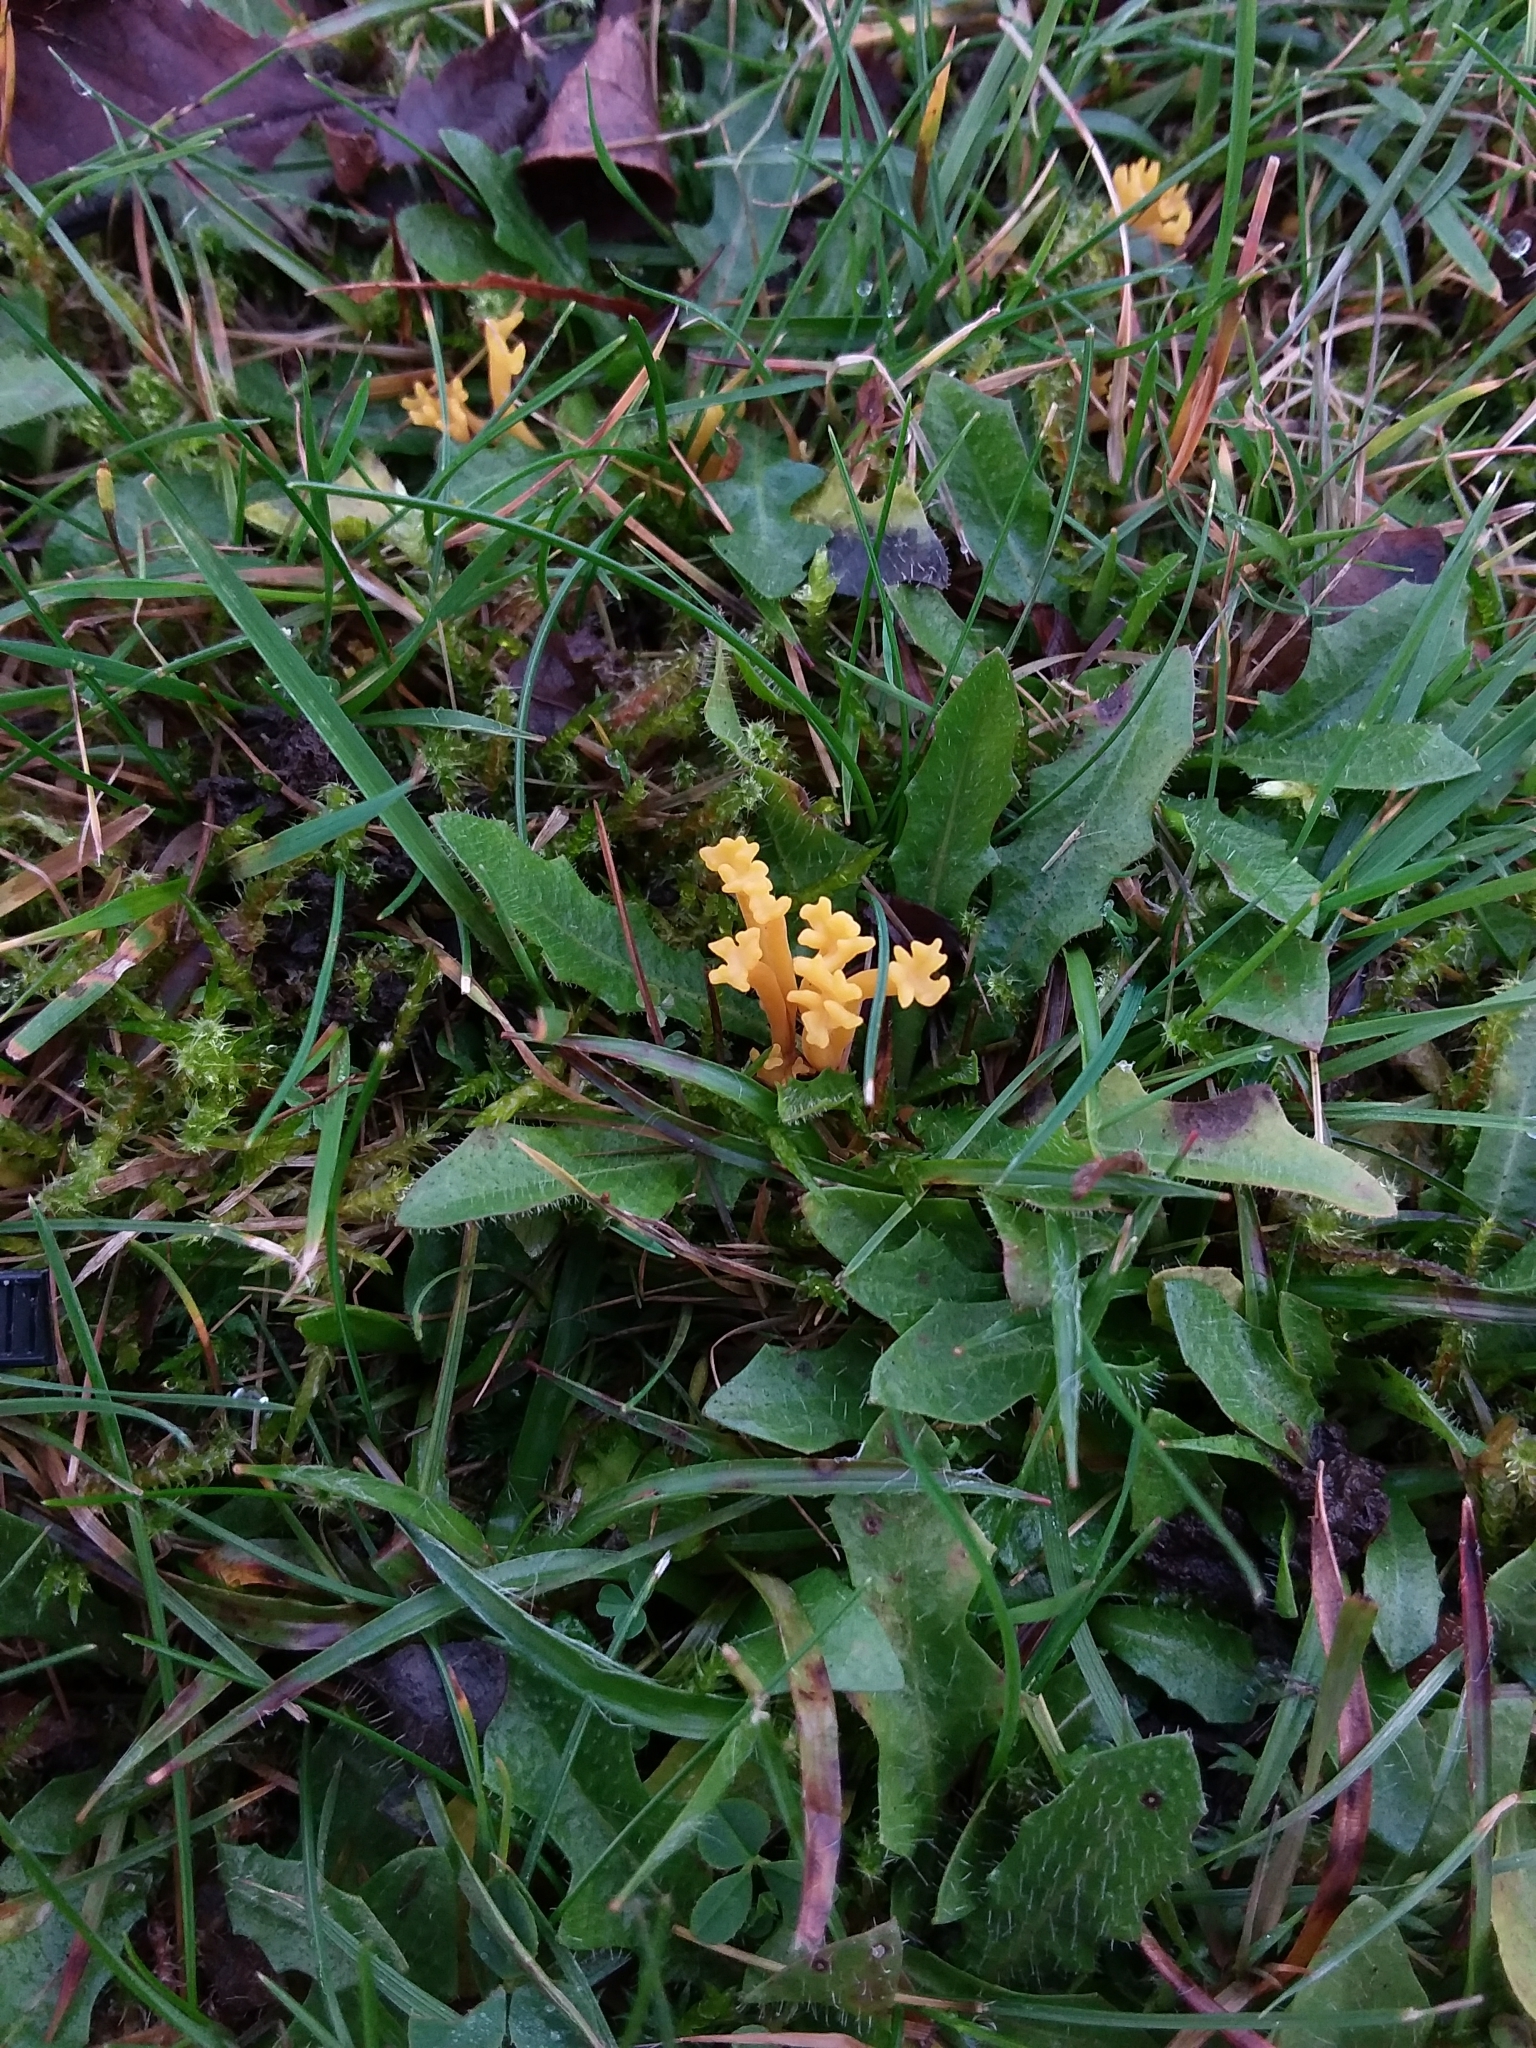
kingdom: Fungi
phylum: Basidiomycota
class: Agaricomycetes
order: Agaricales
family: Clavariaceae
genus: Clavulinopsis
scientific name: Clavulinopsis corniculata
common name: Meadow coral
